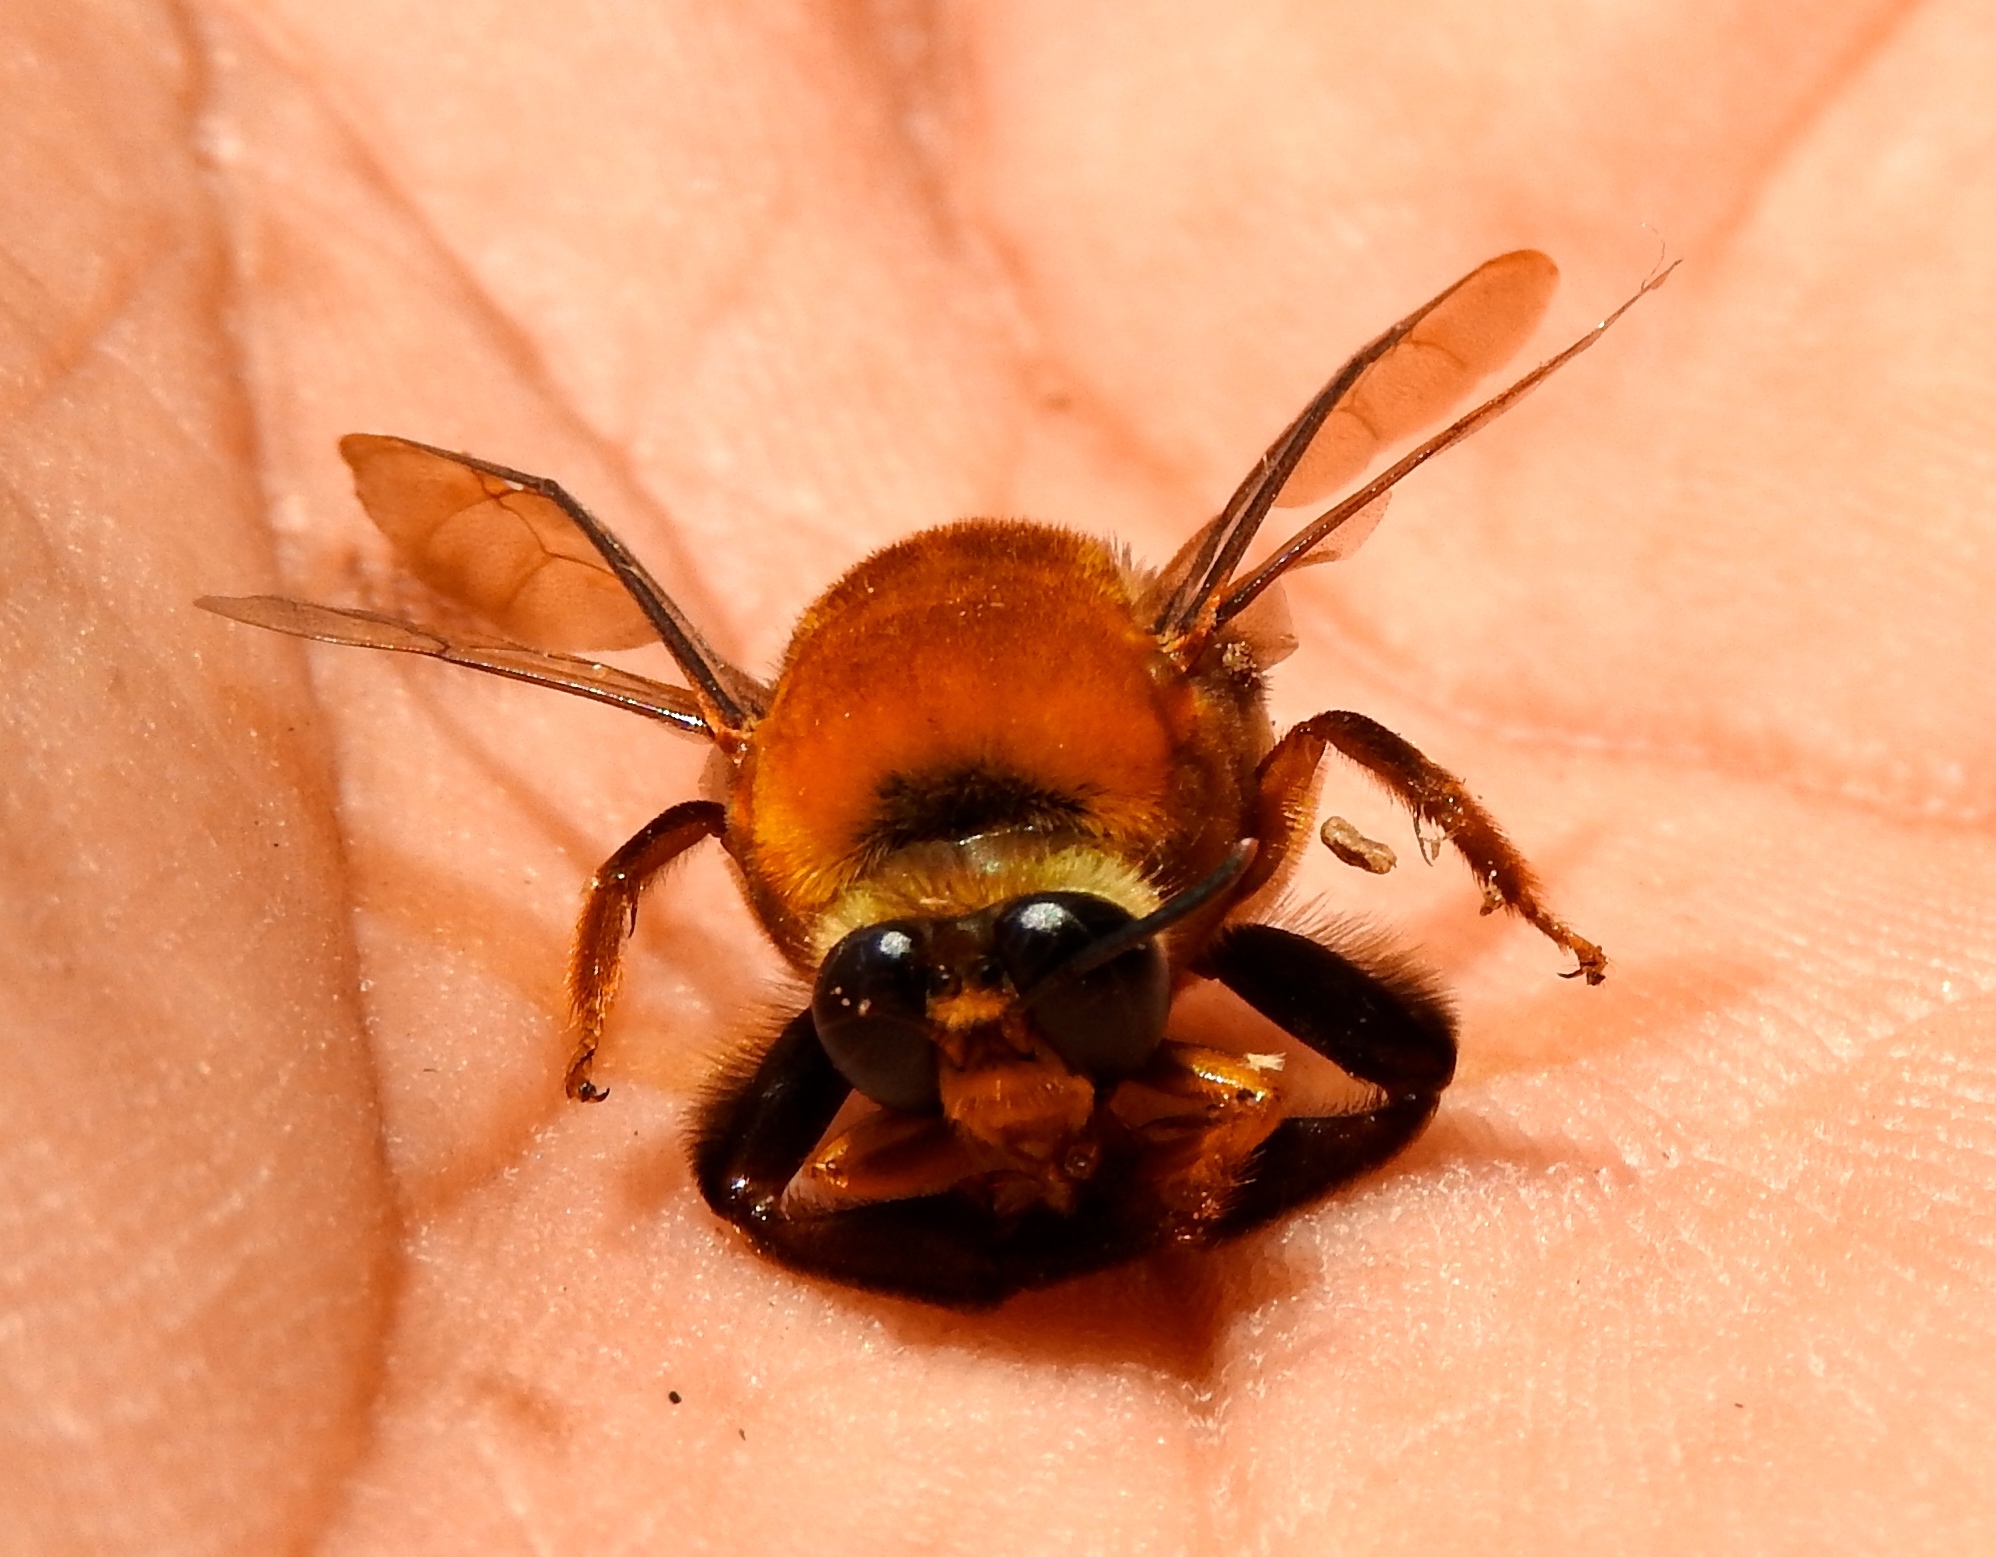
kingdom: Animalia
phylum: Arthropoda
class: Insecta
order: Hymenoptera
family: Colletidae
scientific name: Colletidae
